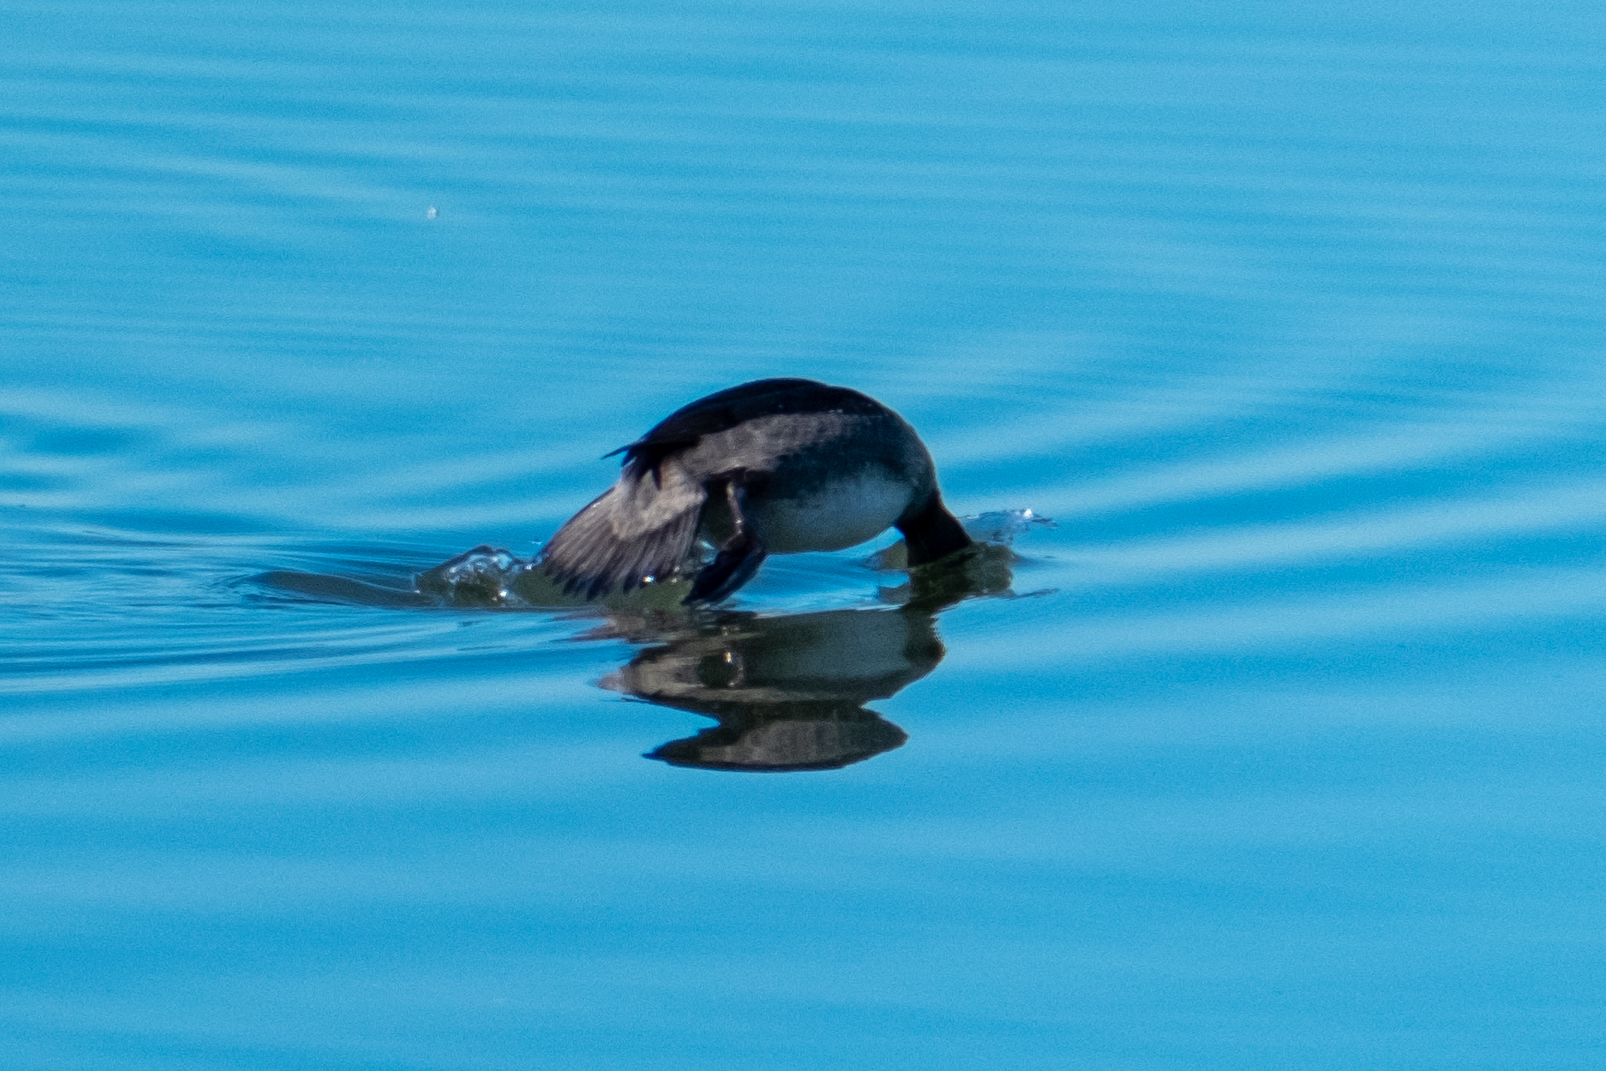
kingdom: Animalia
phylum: Chordata
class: Aves
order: Anseriformes
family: Anatidae
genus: Bucephala
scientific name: Bucephala albeola
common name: Bufflehead
